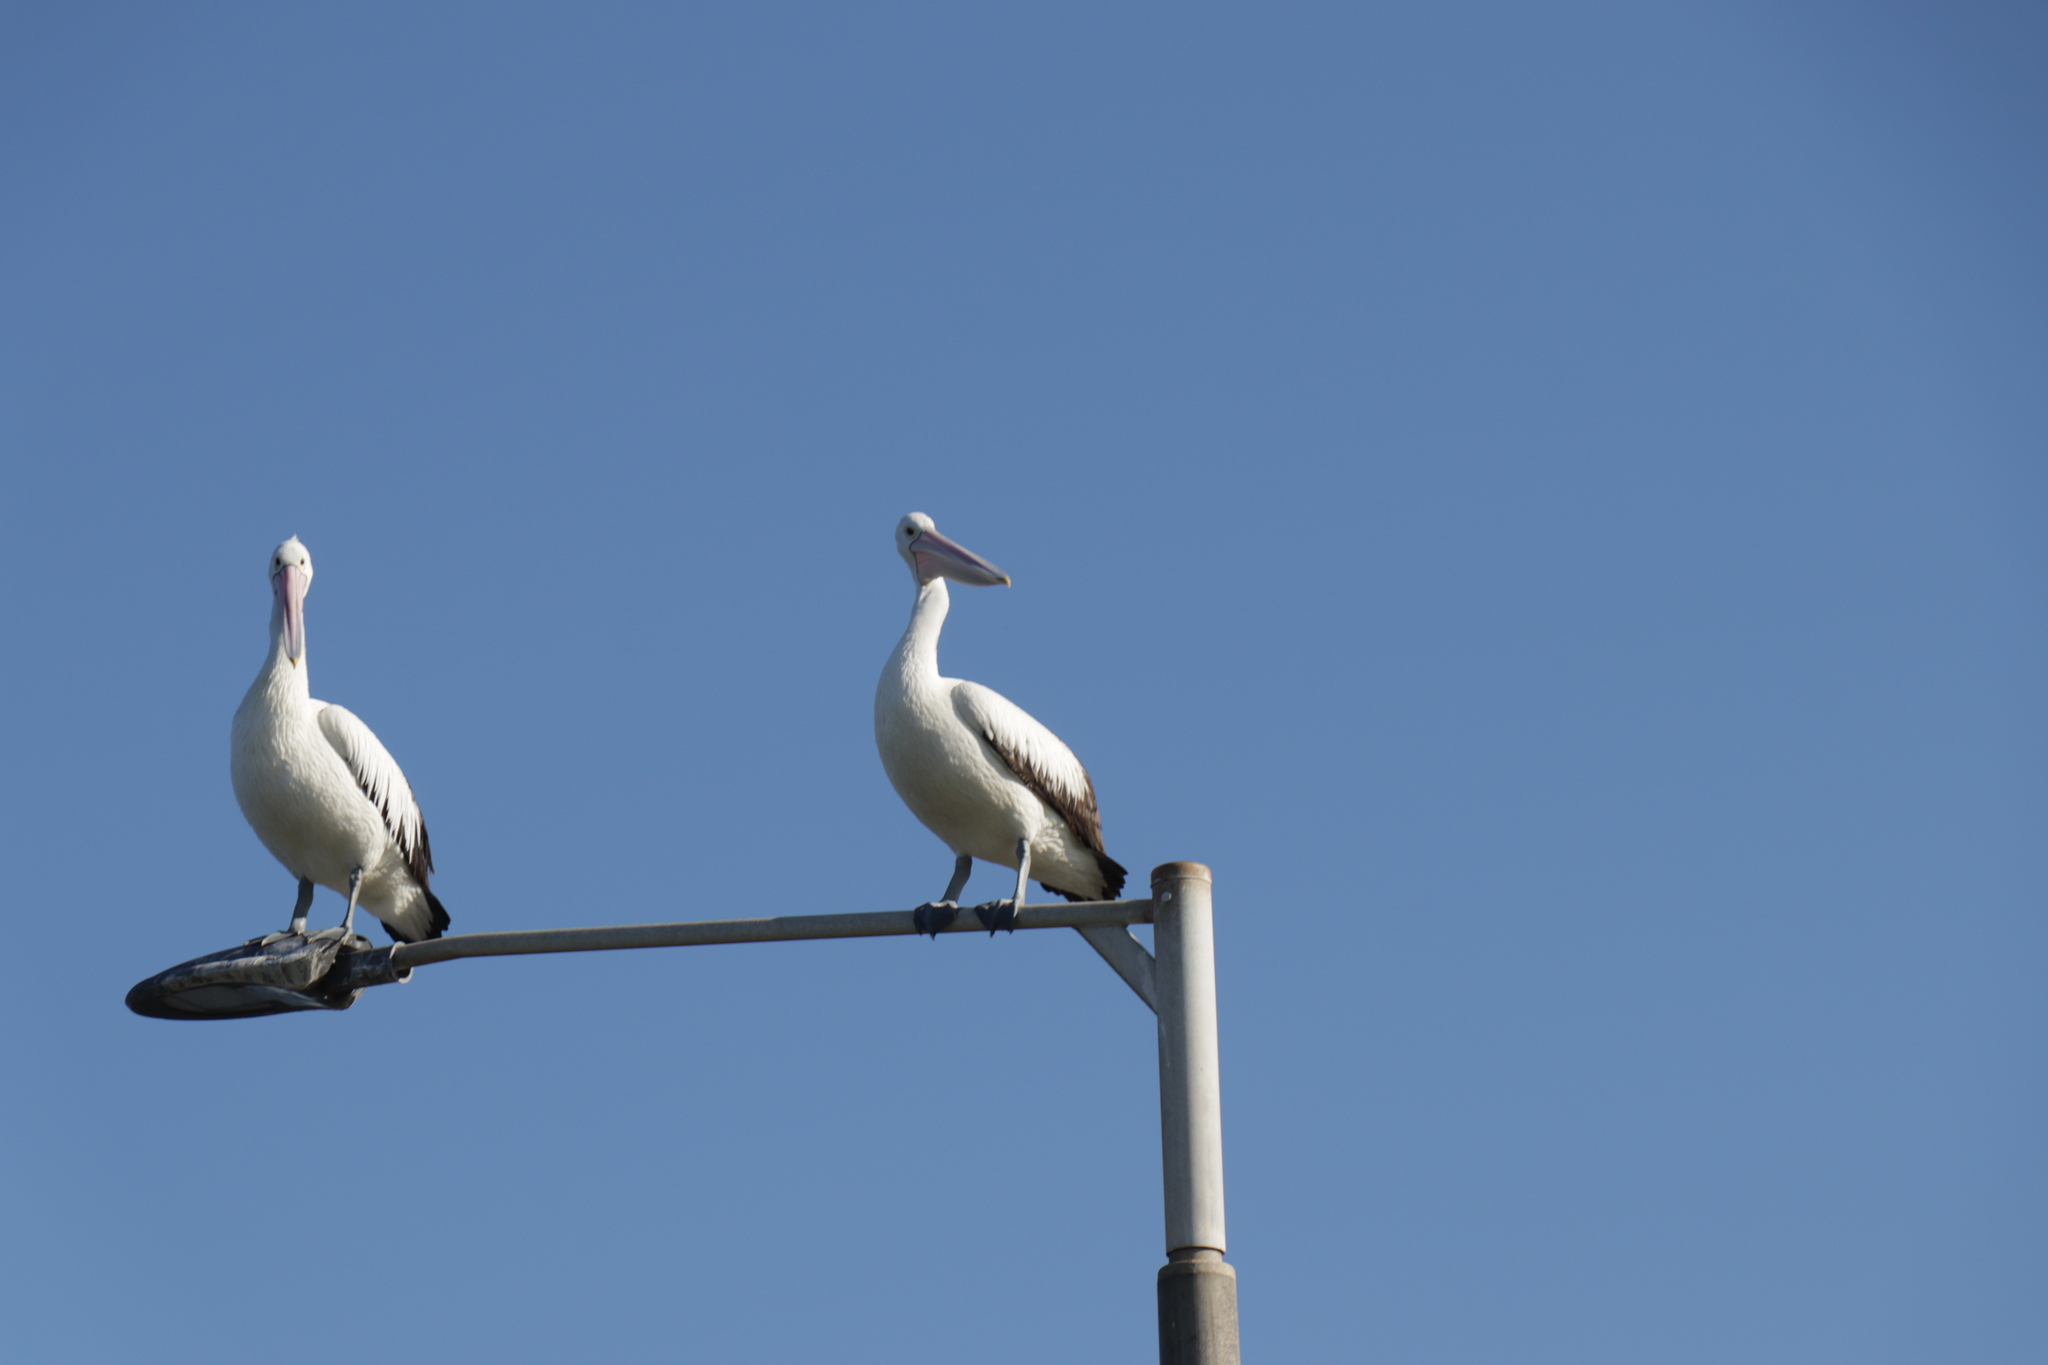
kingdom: Animalia
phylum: Chordata
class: Aves
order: Pelecaniformes
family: Pelecanidae
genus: Pelecanus
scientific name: Pelecanus conspicillatus
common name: Australian pelican
